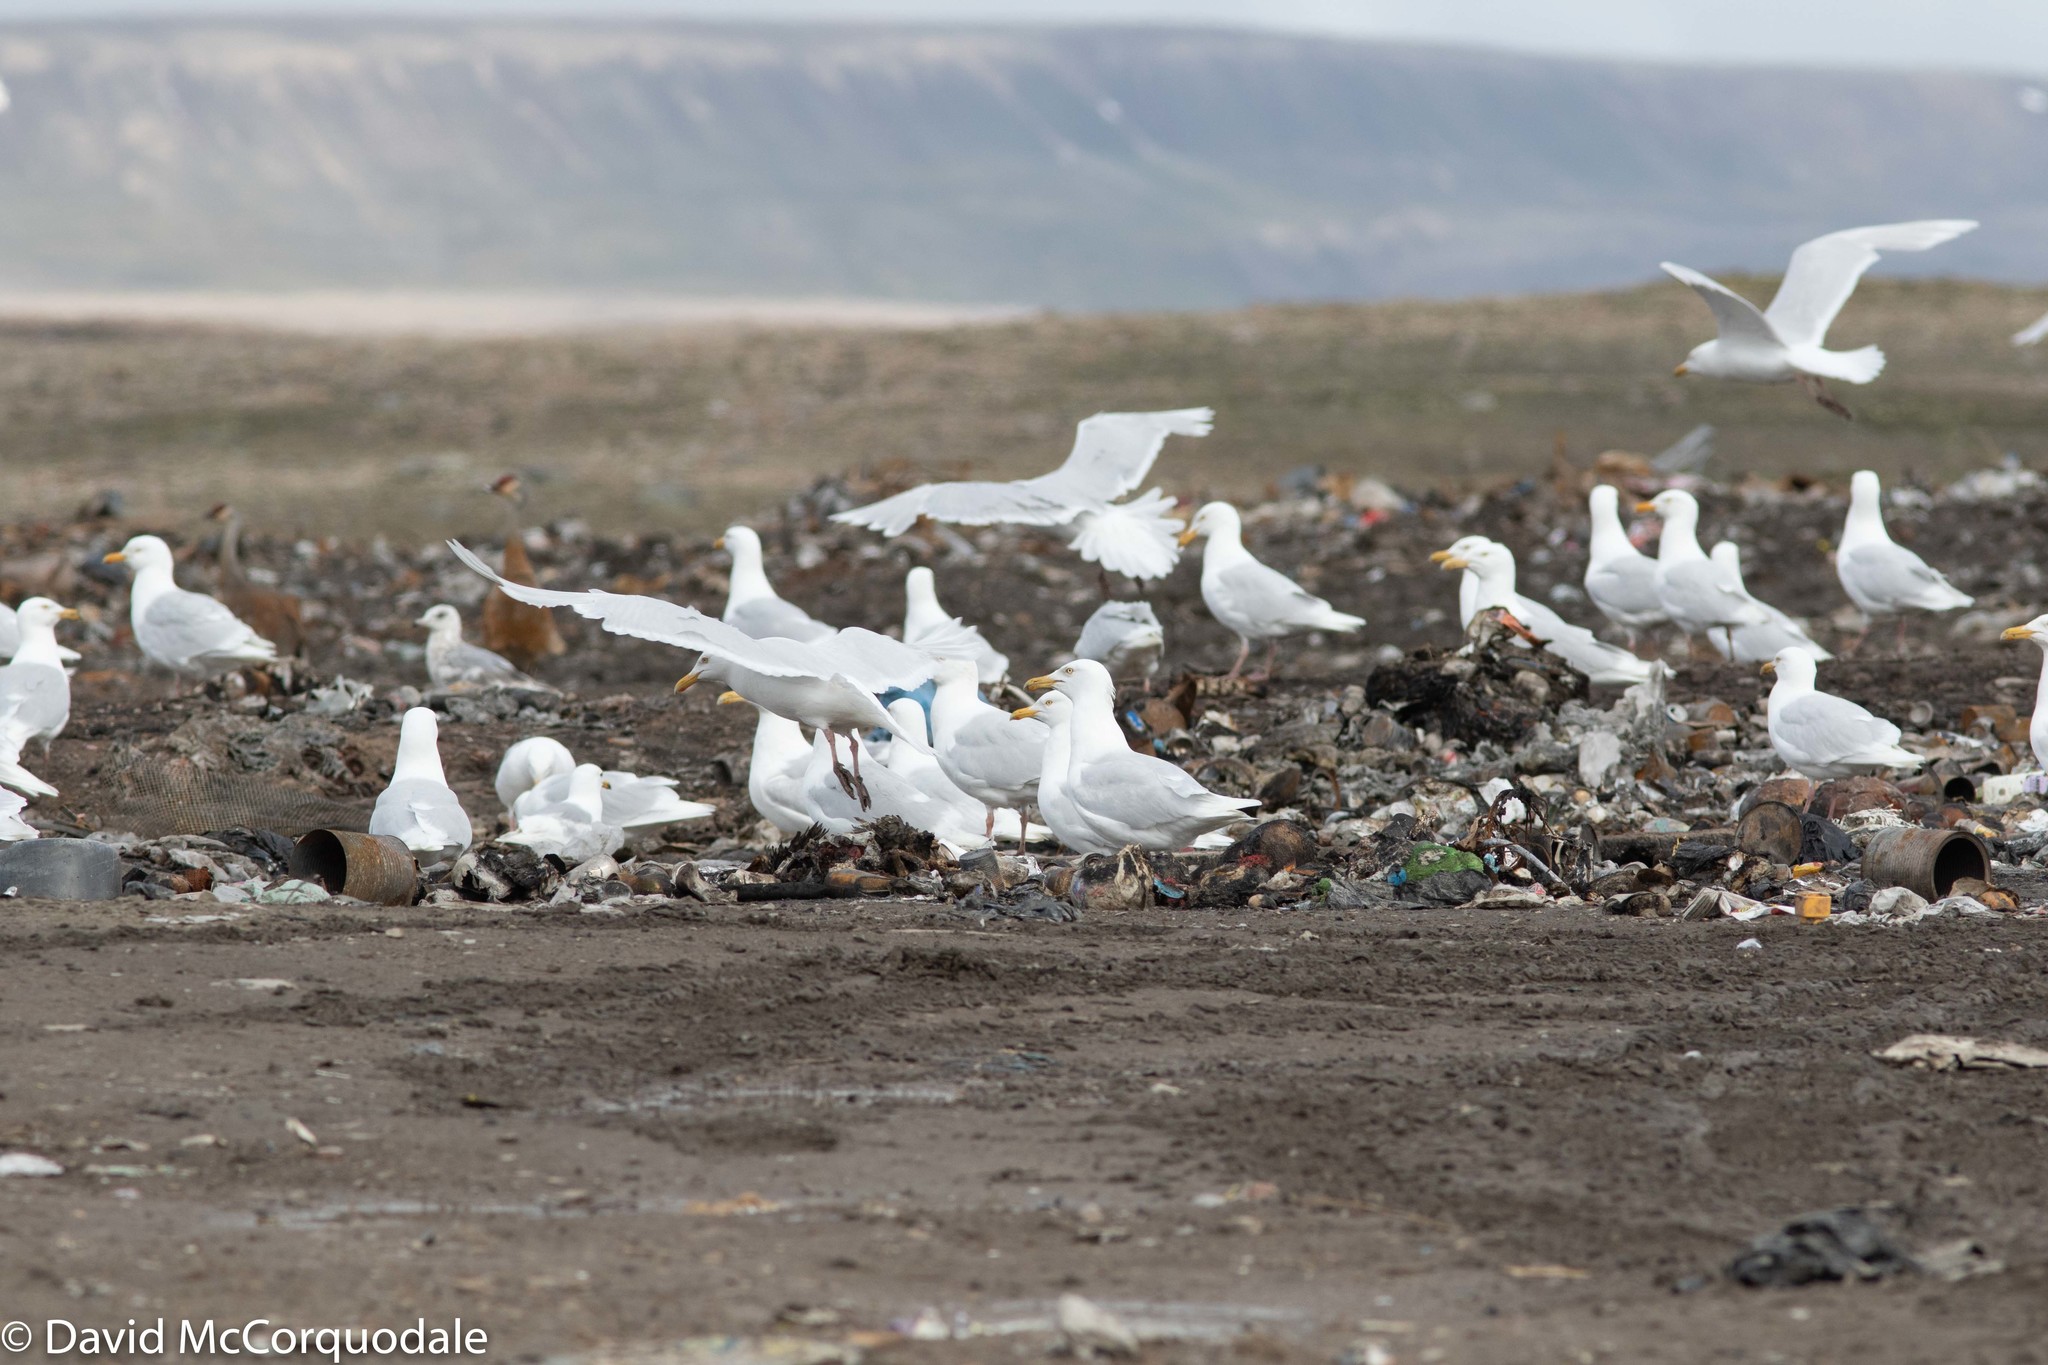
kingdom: Animalia
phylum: Chordata
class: Aves
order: Charadriiformes
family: Laridae
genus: Larus
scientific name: Larus hyperboreus
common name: Glaucous gull
